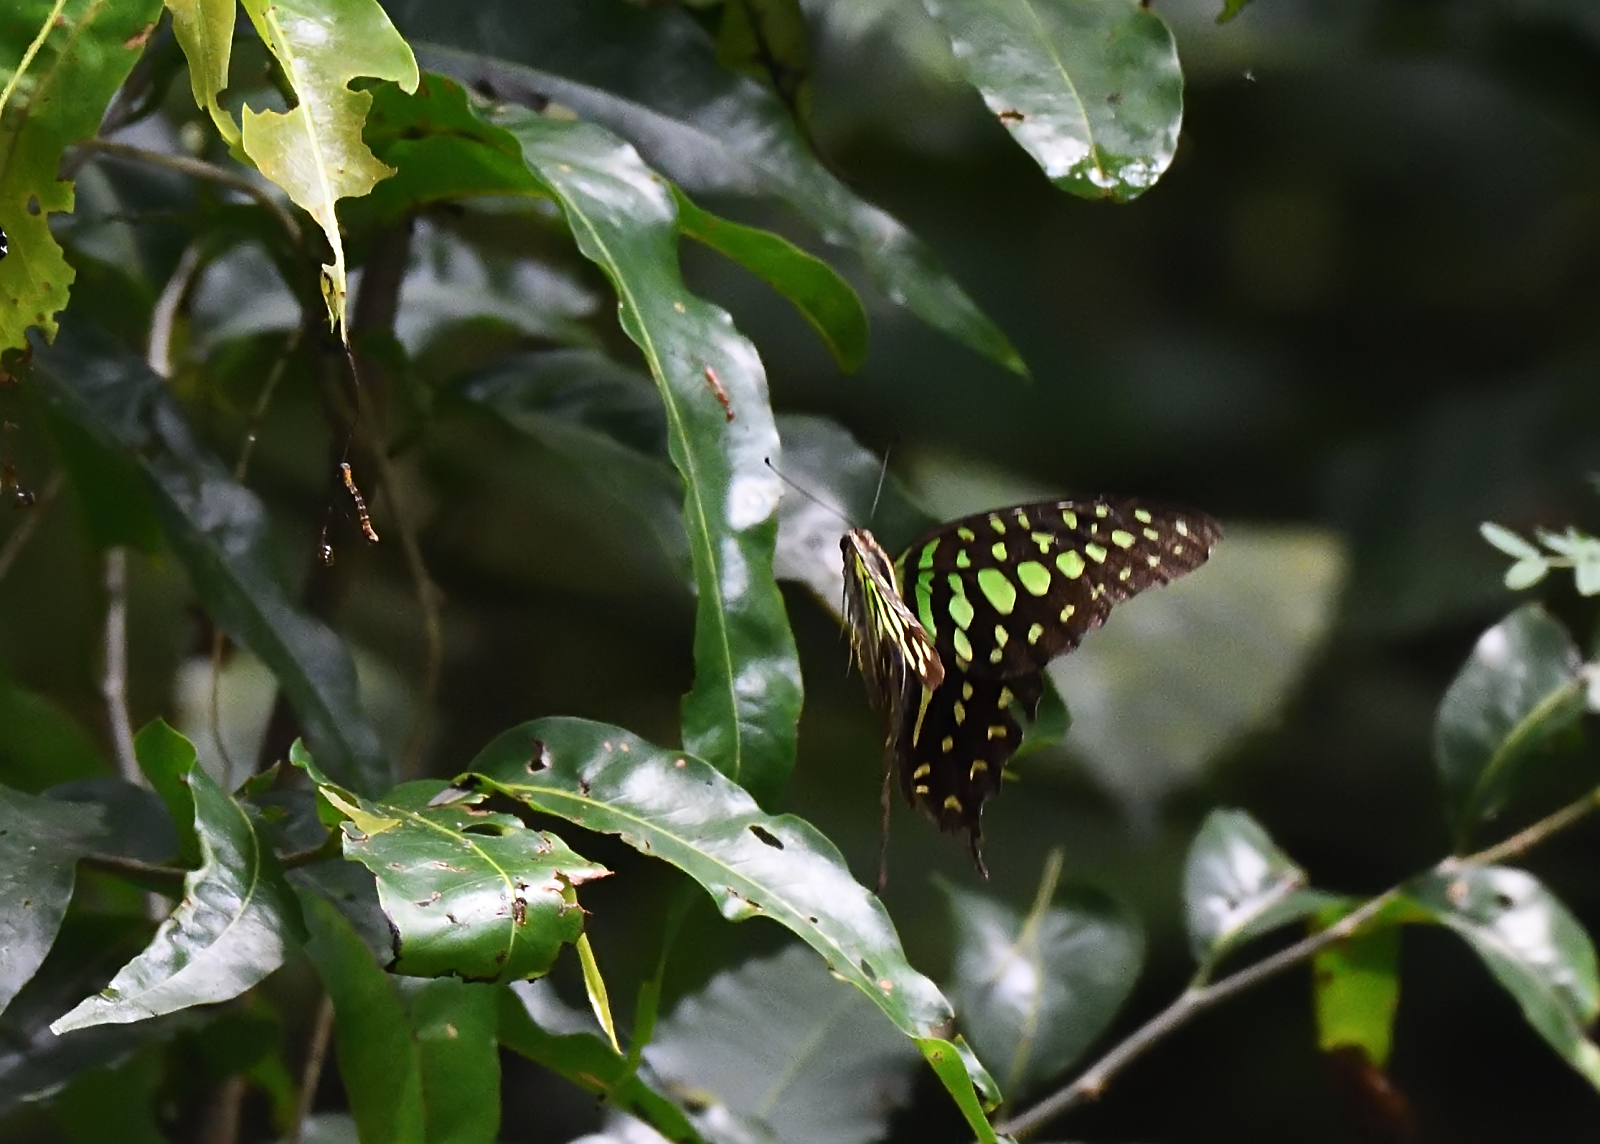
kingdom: Animalia
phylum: Arthropoda
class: Insecta
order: Lepidoptera
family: Papilionidae
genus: Graphium
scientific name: Graphium agamemnon
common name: Tailed jay
